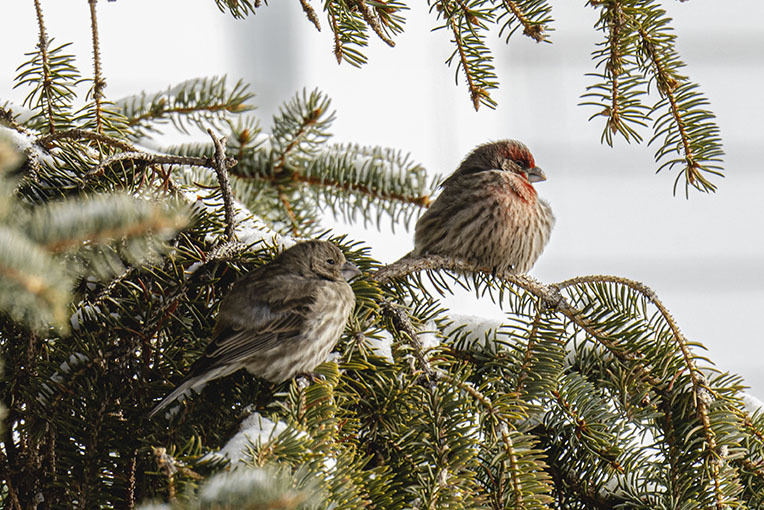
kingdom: Animalia
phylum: Chordata
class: Aves
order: Passeriformes
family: Fringillidae
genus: Haemorhous
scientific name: Haemorhous mexicanus
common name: House finch
